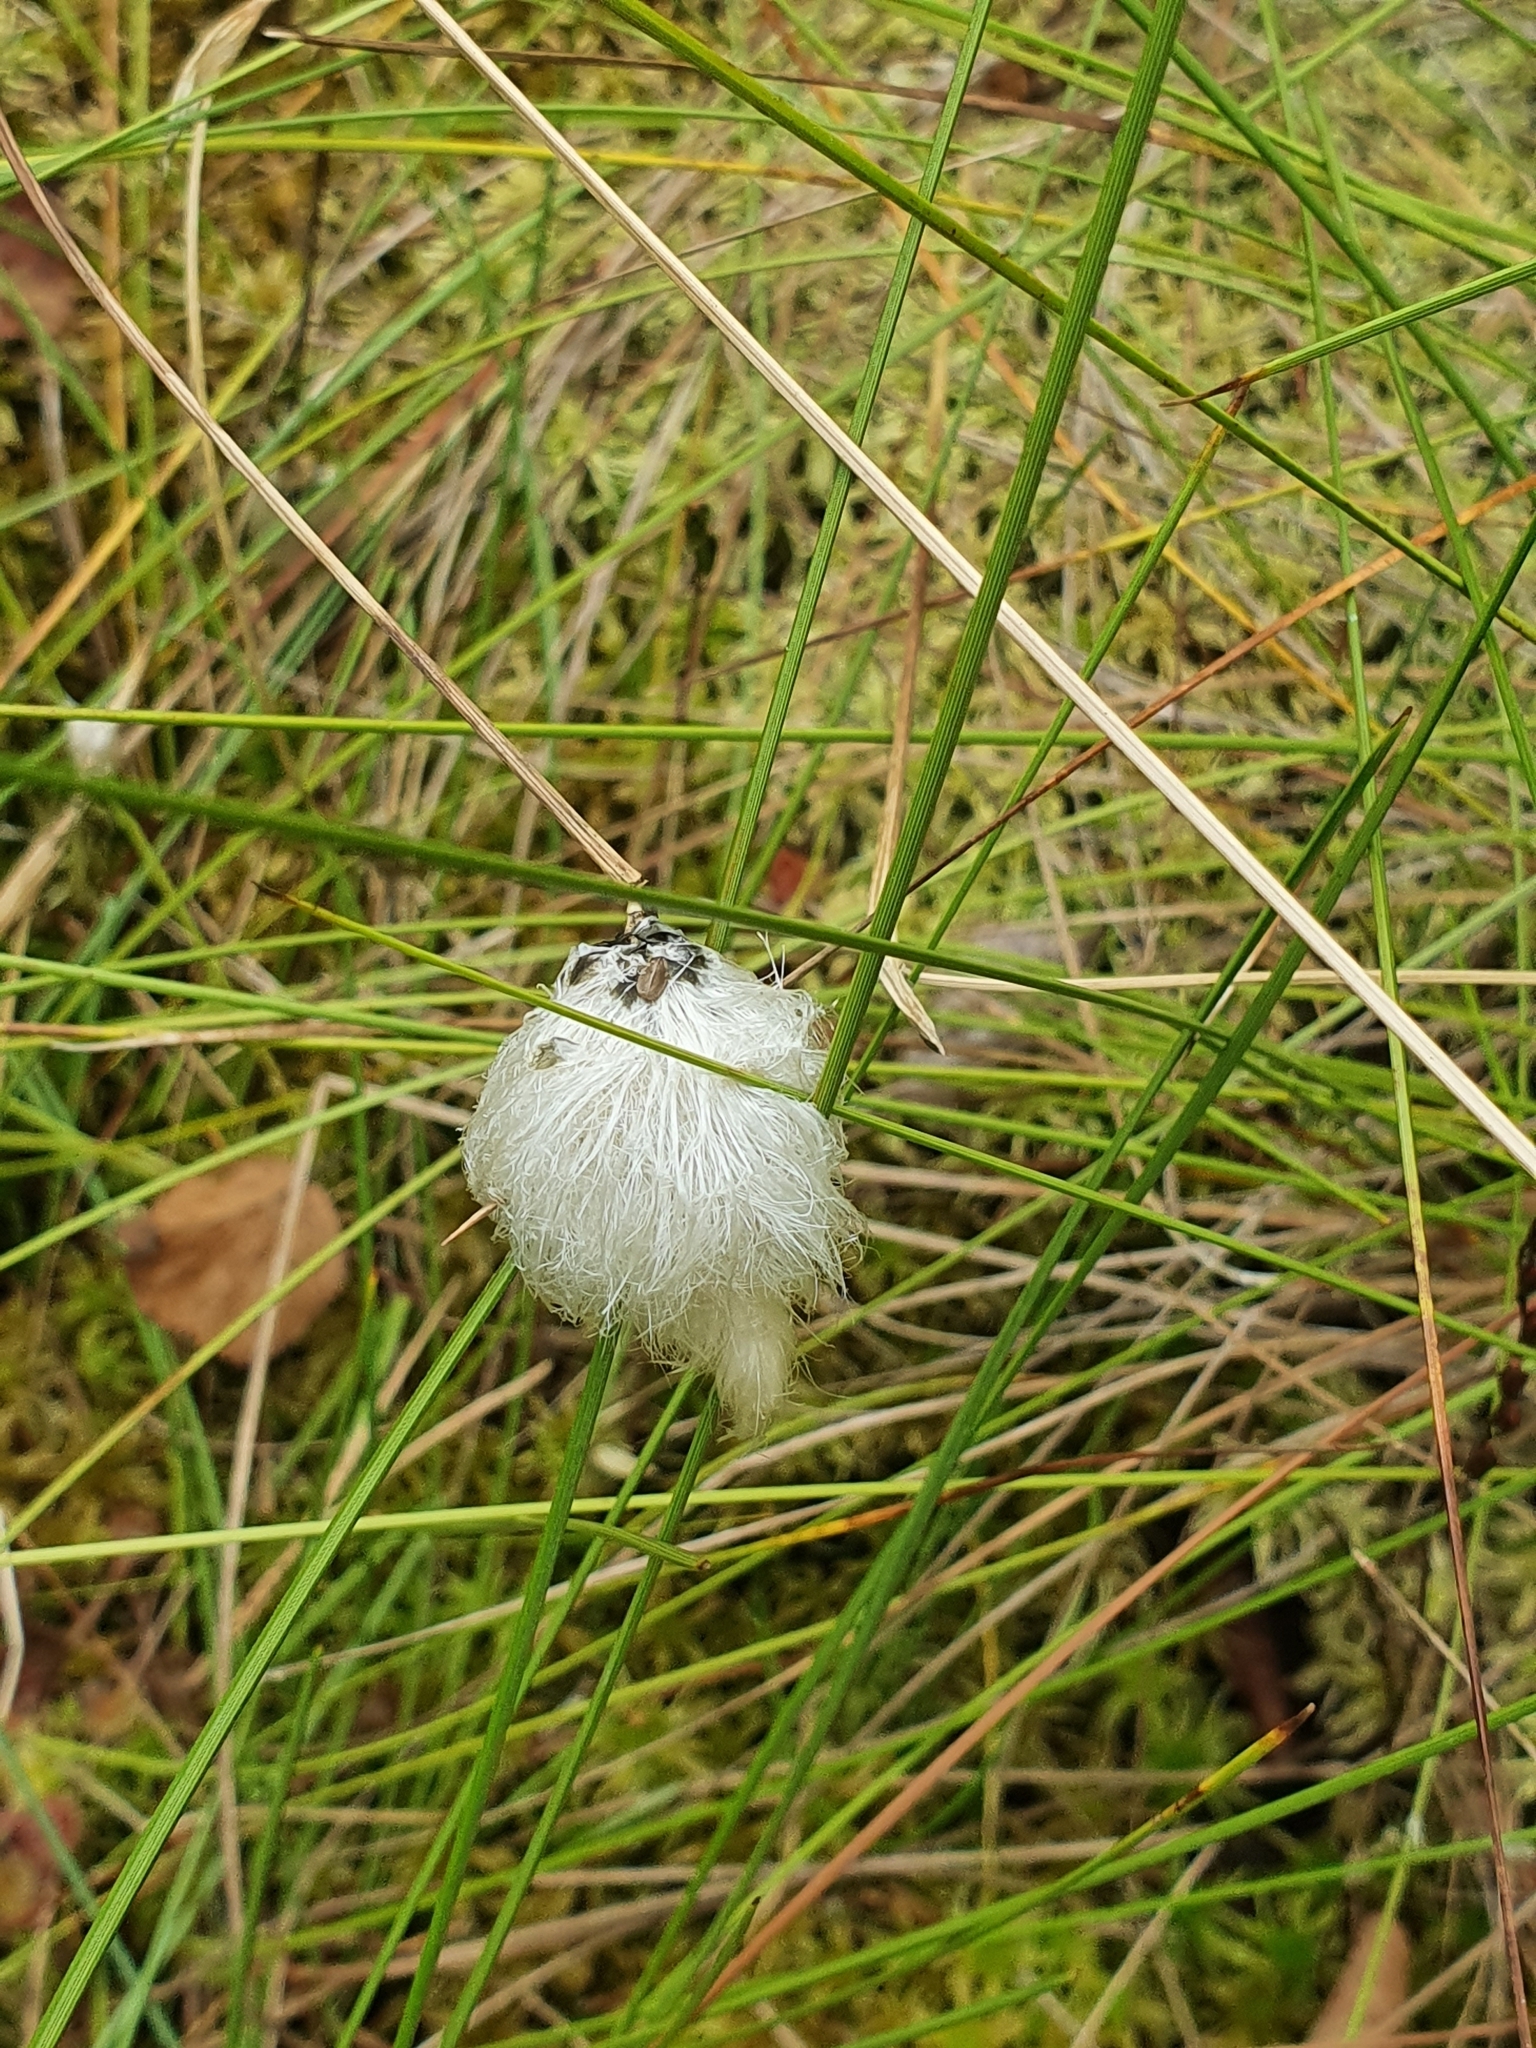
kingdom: Plantae
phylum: Tracheophyta
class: Liliopsida
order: Poales
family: Cyperaceae
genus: Eriophorum
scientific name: Eriophorum vaginatum
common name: Hare's-tail cottongrass
